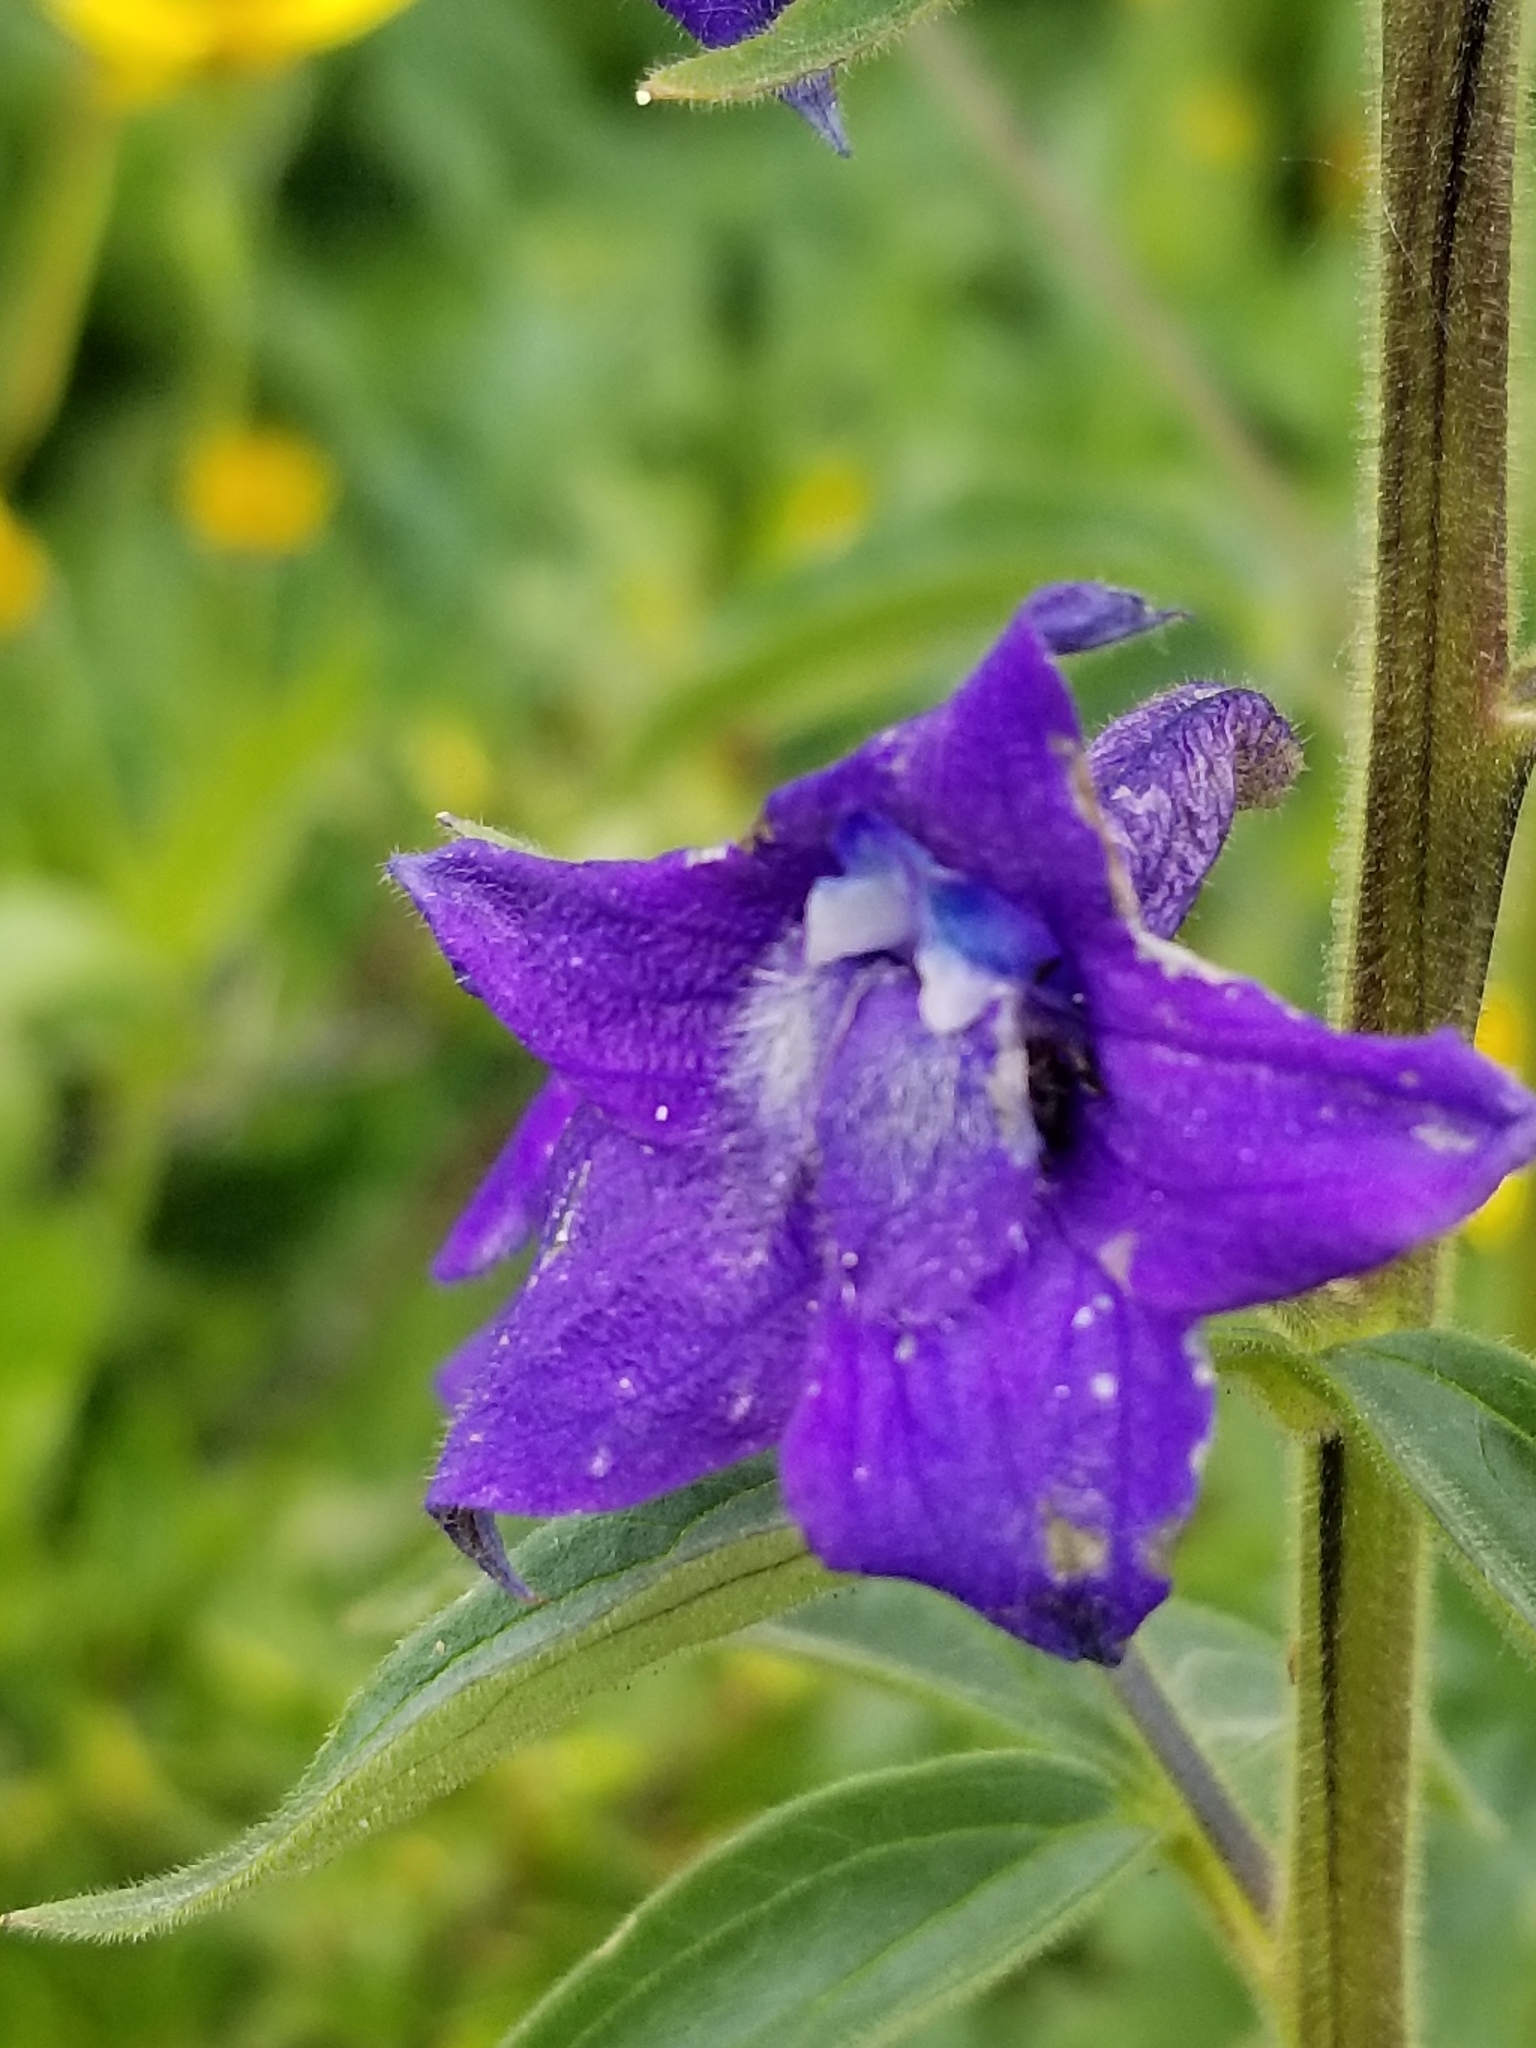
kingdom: Plantae
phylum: Tracheophyta
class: Magnoliopsida
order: Ranunculales
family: Ranunculaceae
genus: Delphinium
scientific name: Delphinium barbeyi
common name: Subalpine larkspur
